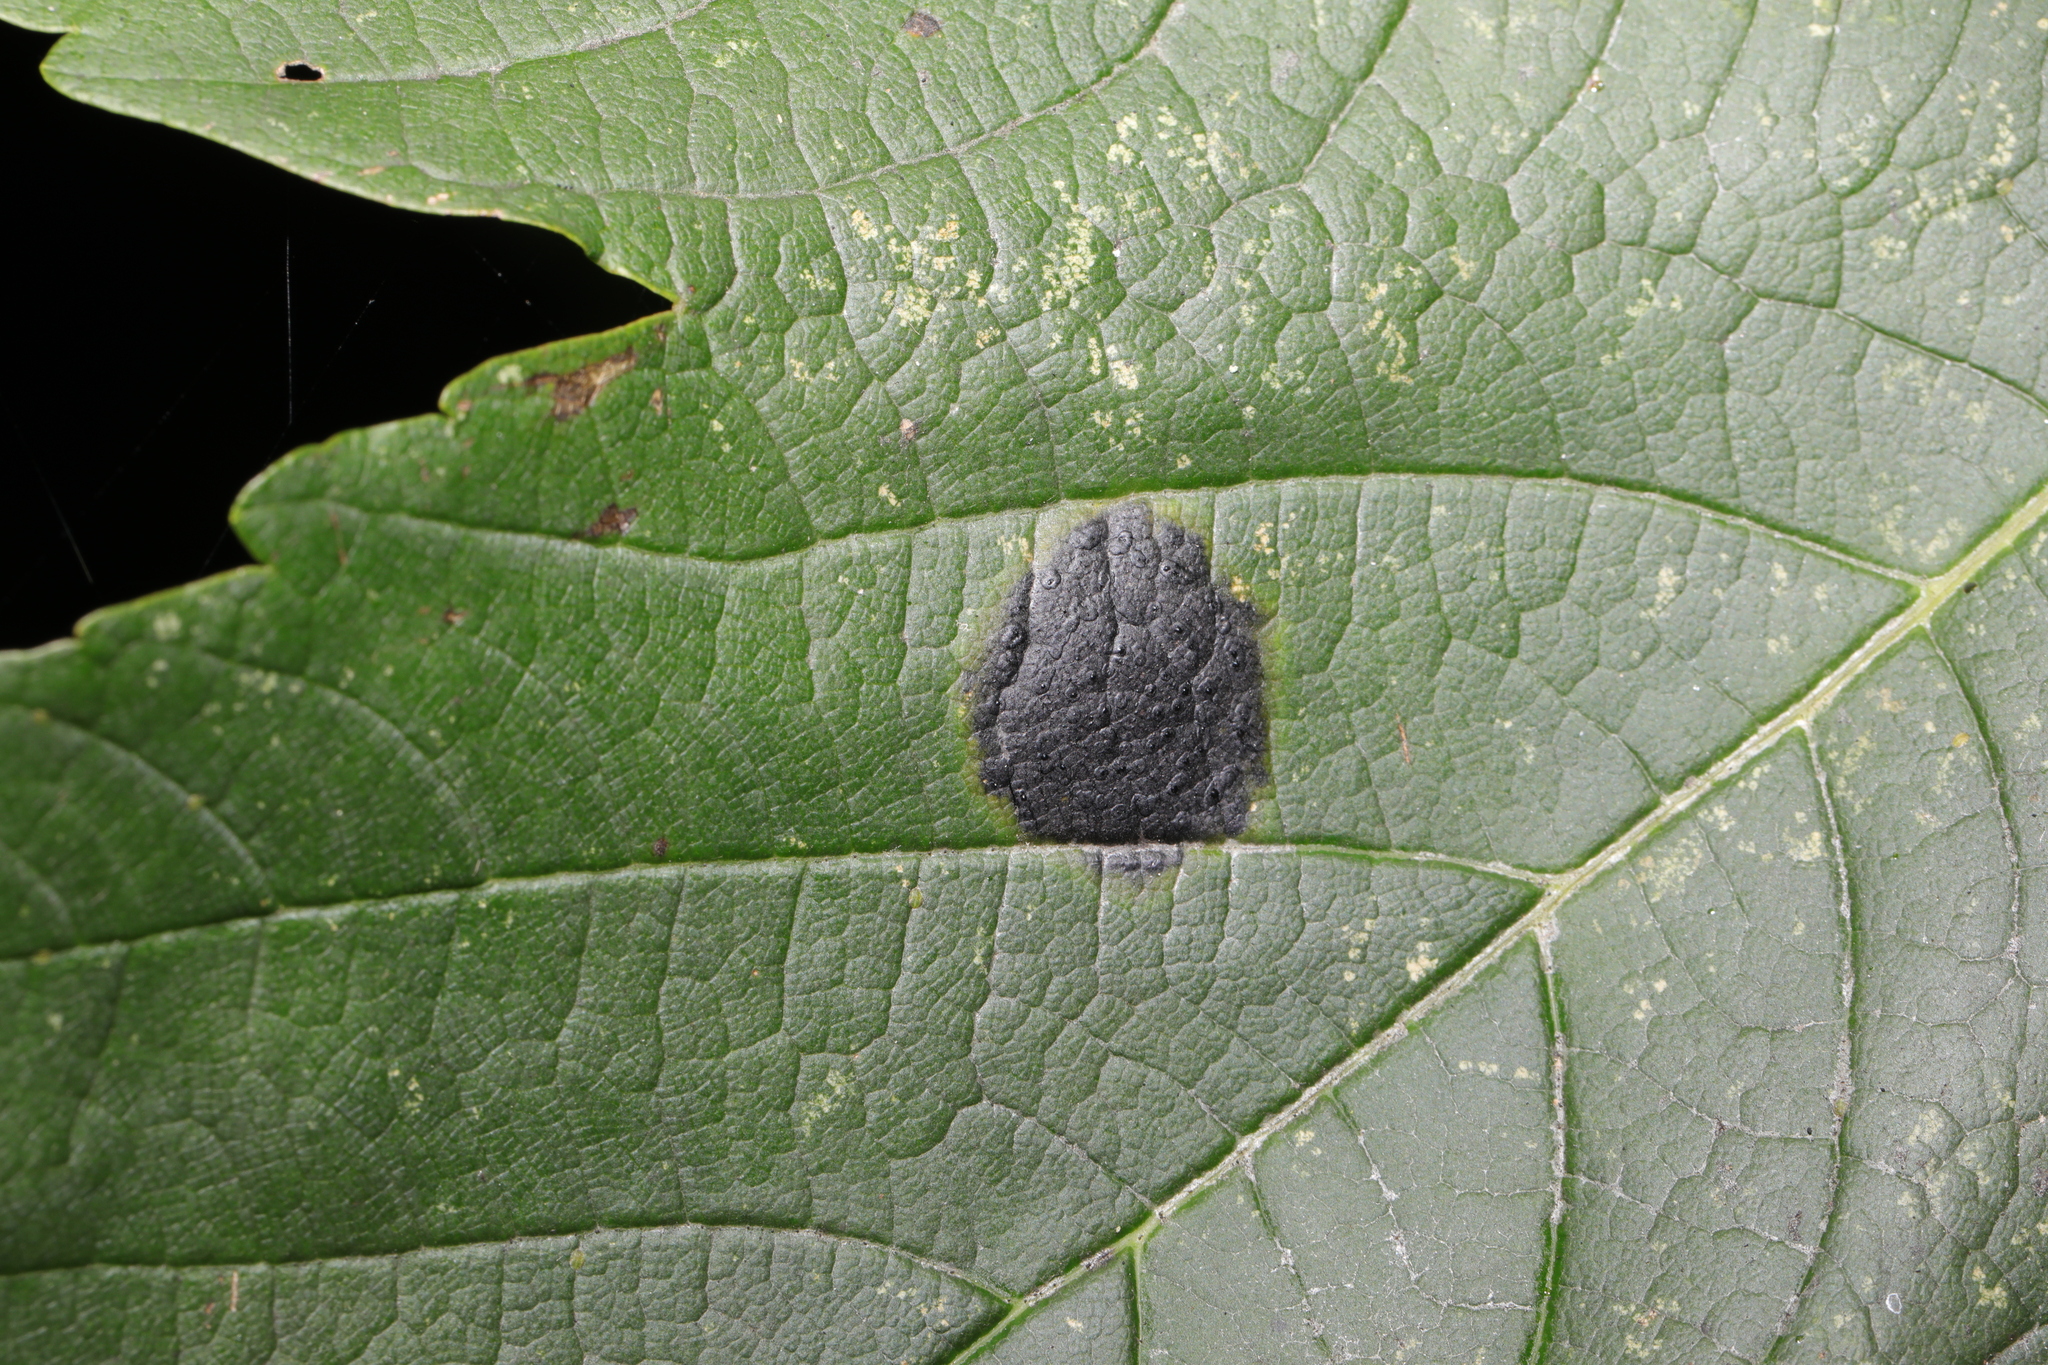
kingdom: Fungi
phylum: Ascomycota
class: Leotiomycetes
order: Rhytismatales
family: Rhytismataceae
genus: Rhytisma
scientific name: Rhytisma acerinum
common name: European tar spot
